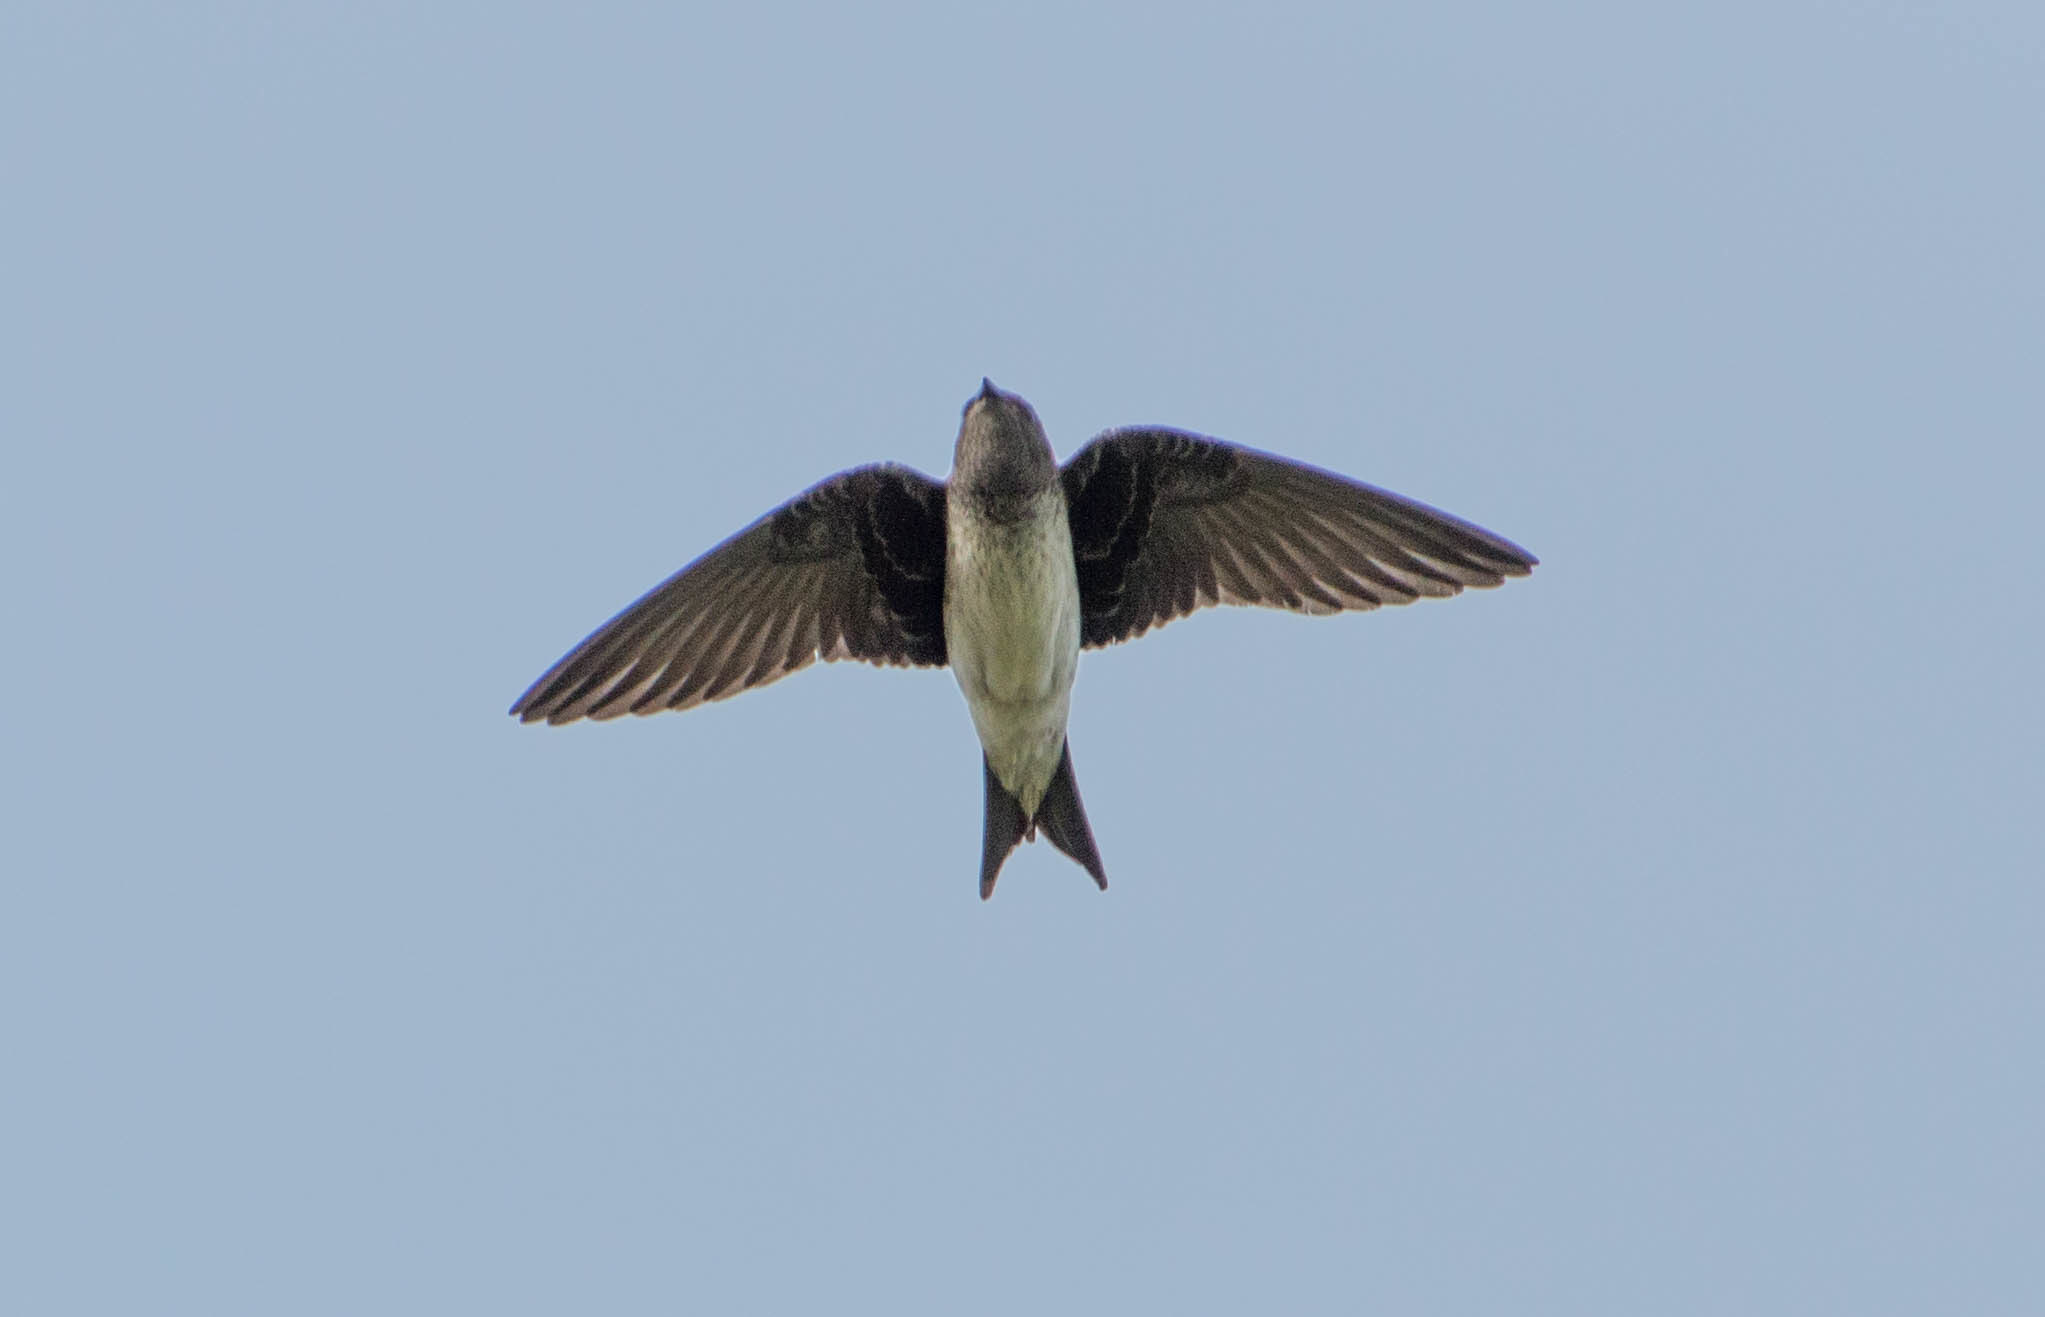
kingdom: Animalia
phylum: Chordata
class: Aves
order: Passeriformes
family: Hirundinidae
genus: Progne
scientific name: Progne chalybea
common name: Grey-breasted martin
